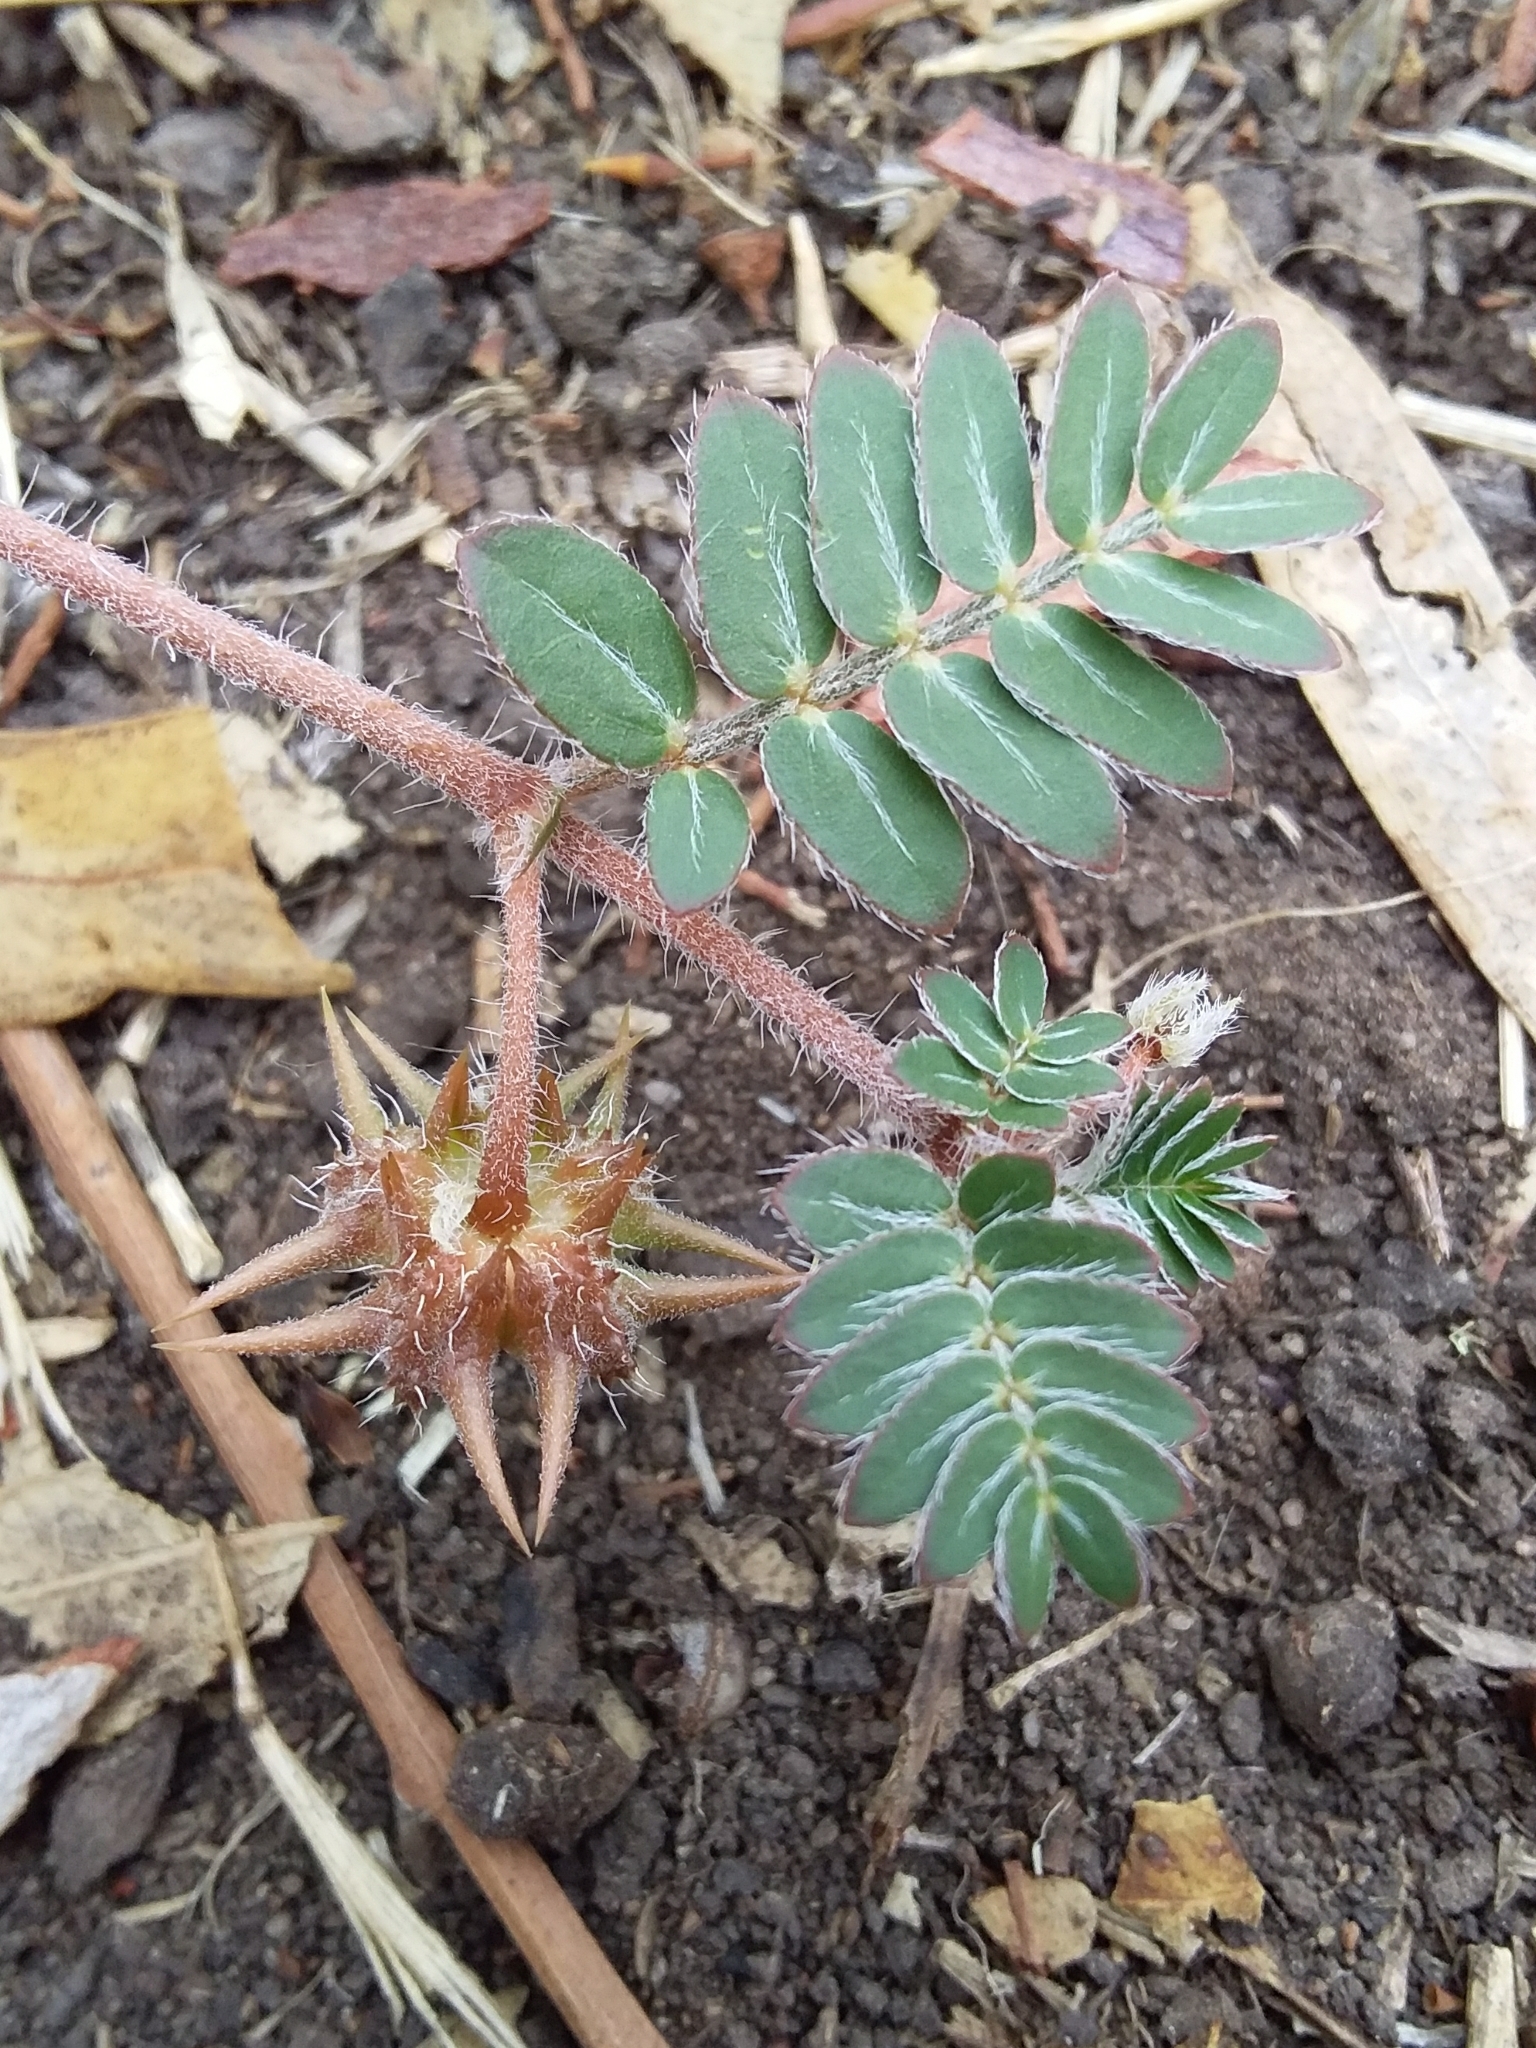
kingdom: Plantae
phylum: Tracheophyta
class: Magnoliopsida
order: Zygophyllales
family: Zygophyllaceae
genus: Tribulus
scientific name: Tribulus terrestris
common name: Puncturevine
